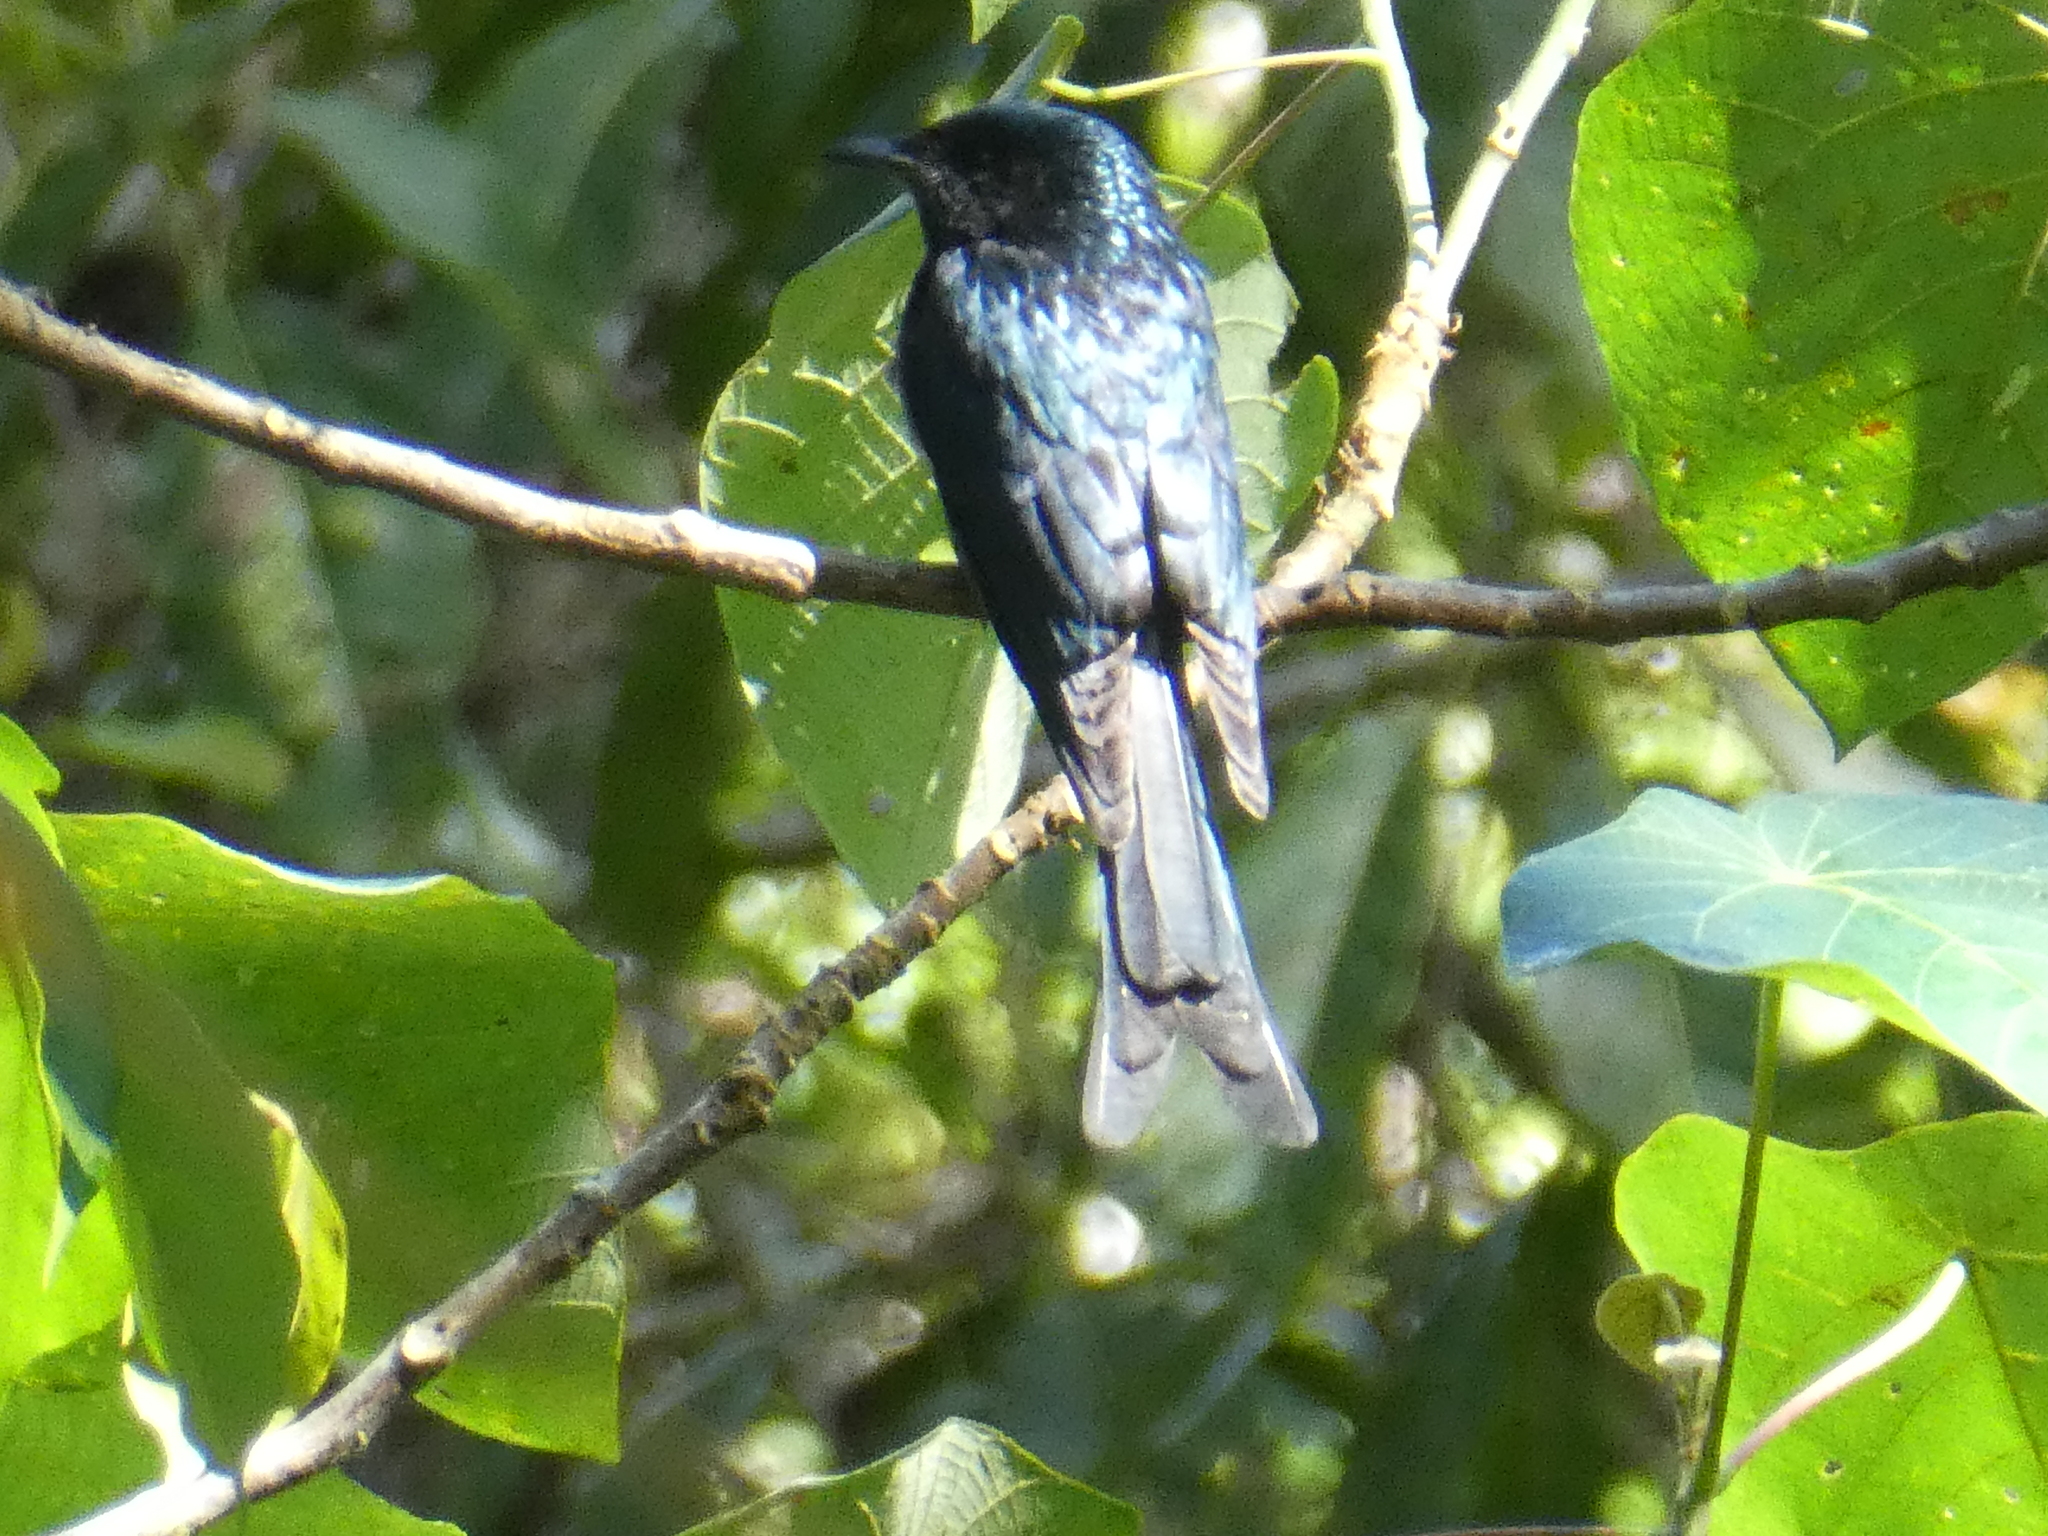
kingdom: Animalia
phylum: Chordata
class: Aves
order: Passeriformes
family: Dicruridae
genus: Dicrurus
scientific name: Dicrurus aeneus
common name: Bronzed drongo
